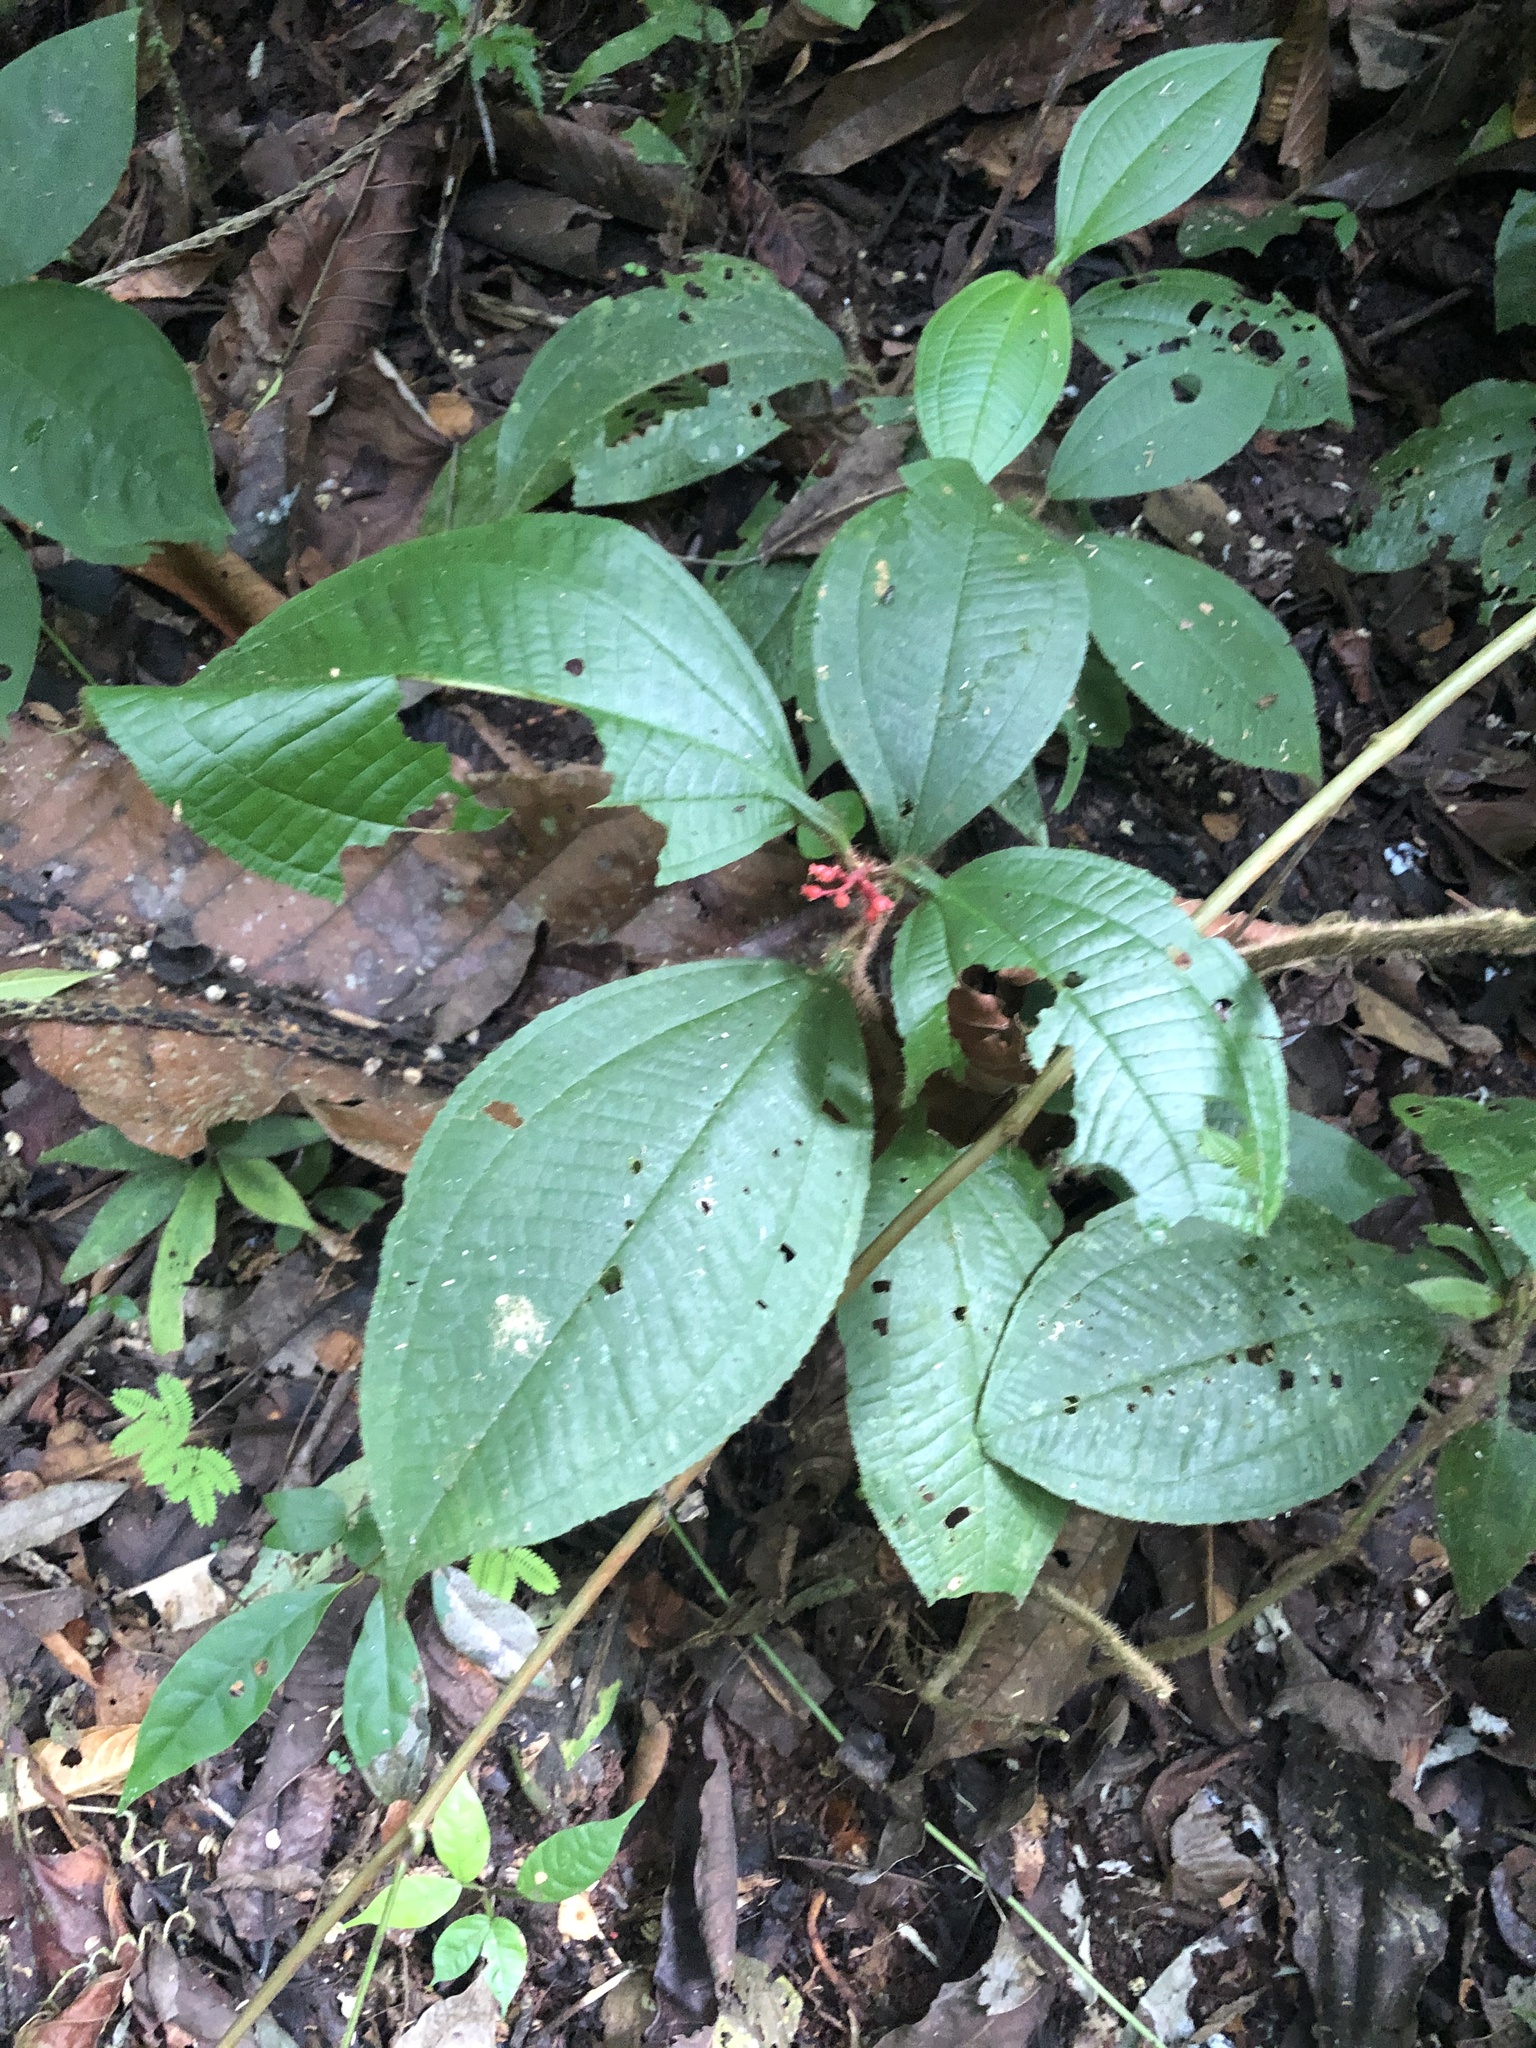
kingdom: Plantae
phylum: Tracheophyta
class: Magnoliopsida
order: Myrtales
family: Melastomataceae
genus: Miconia
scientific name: Miconia caquetana
